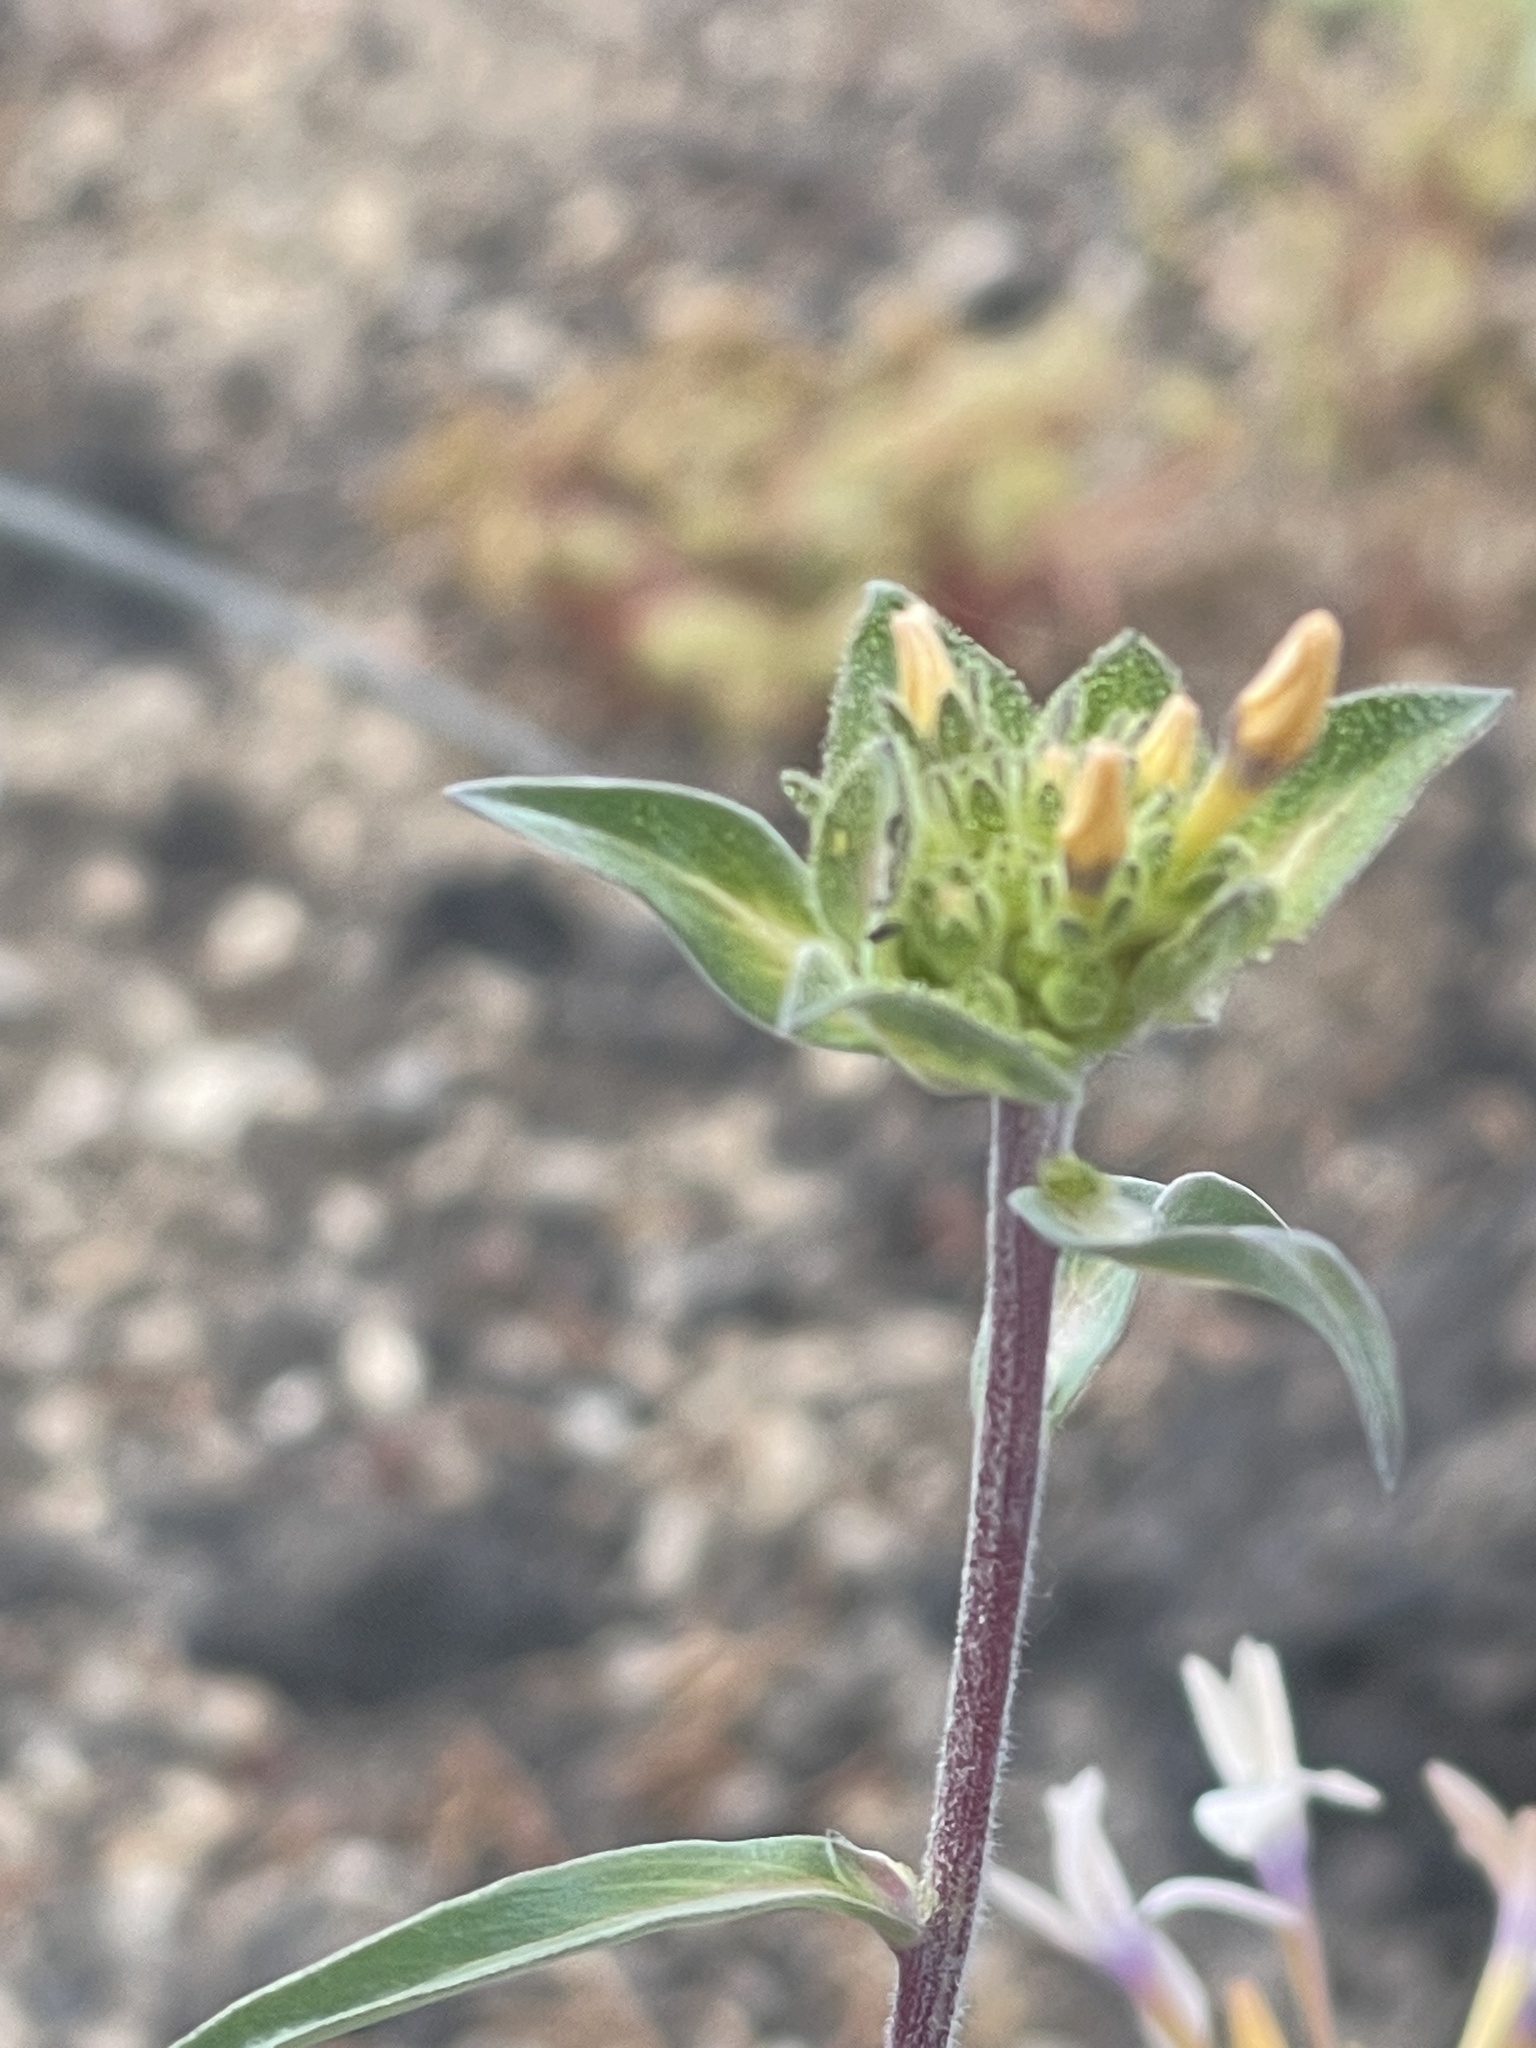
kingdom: Plantae
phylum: Tracheophyta
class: Magnoliopsida
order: Ericales
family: Polemoniaceae
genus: Collomia
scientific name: Collomia grandiflora
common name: California strawflower
